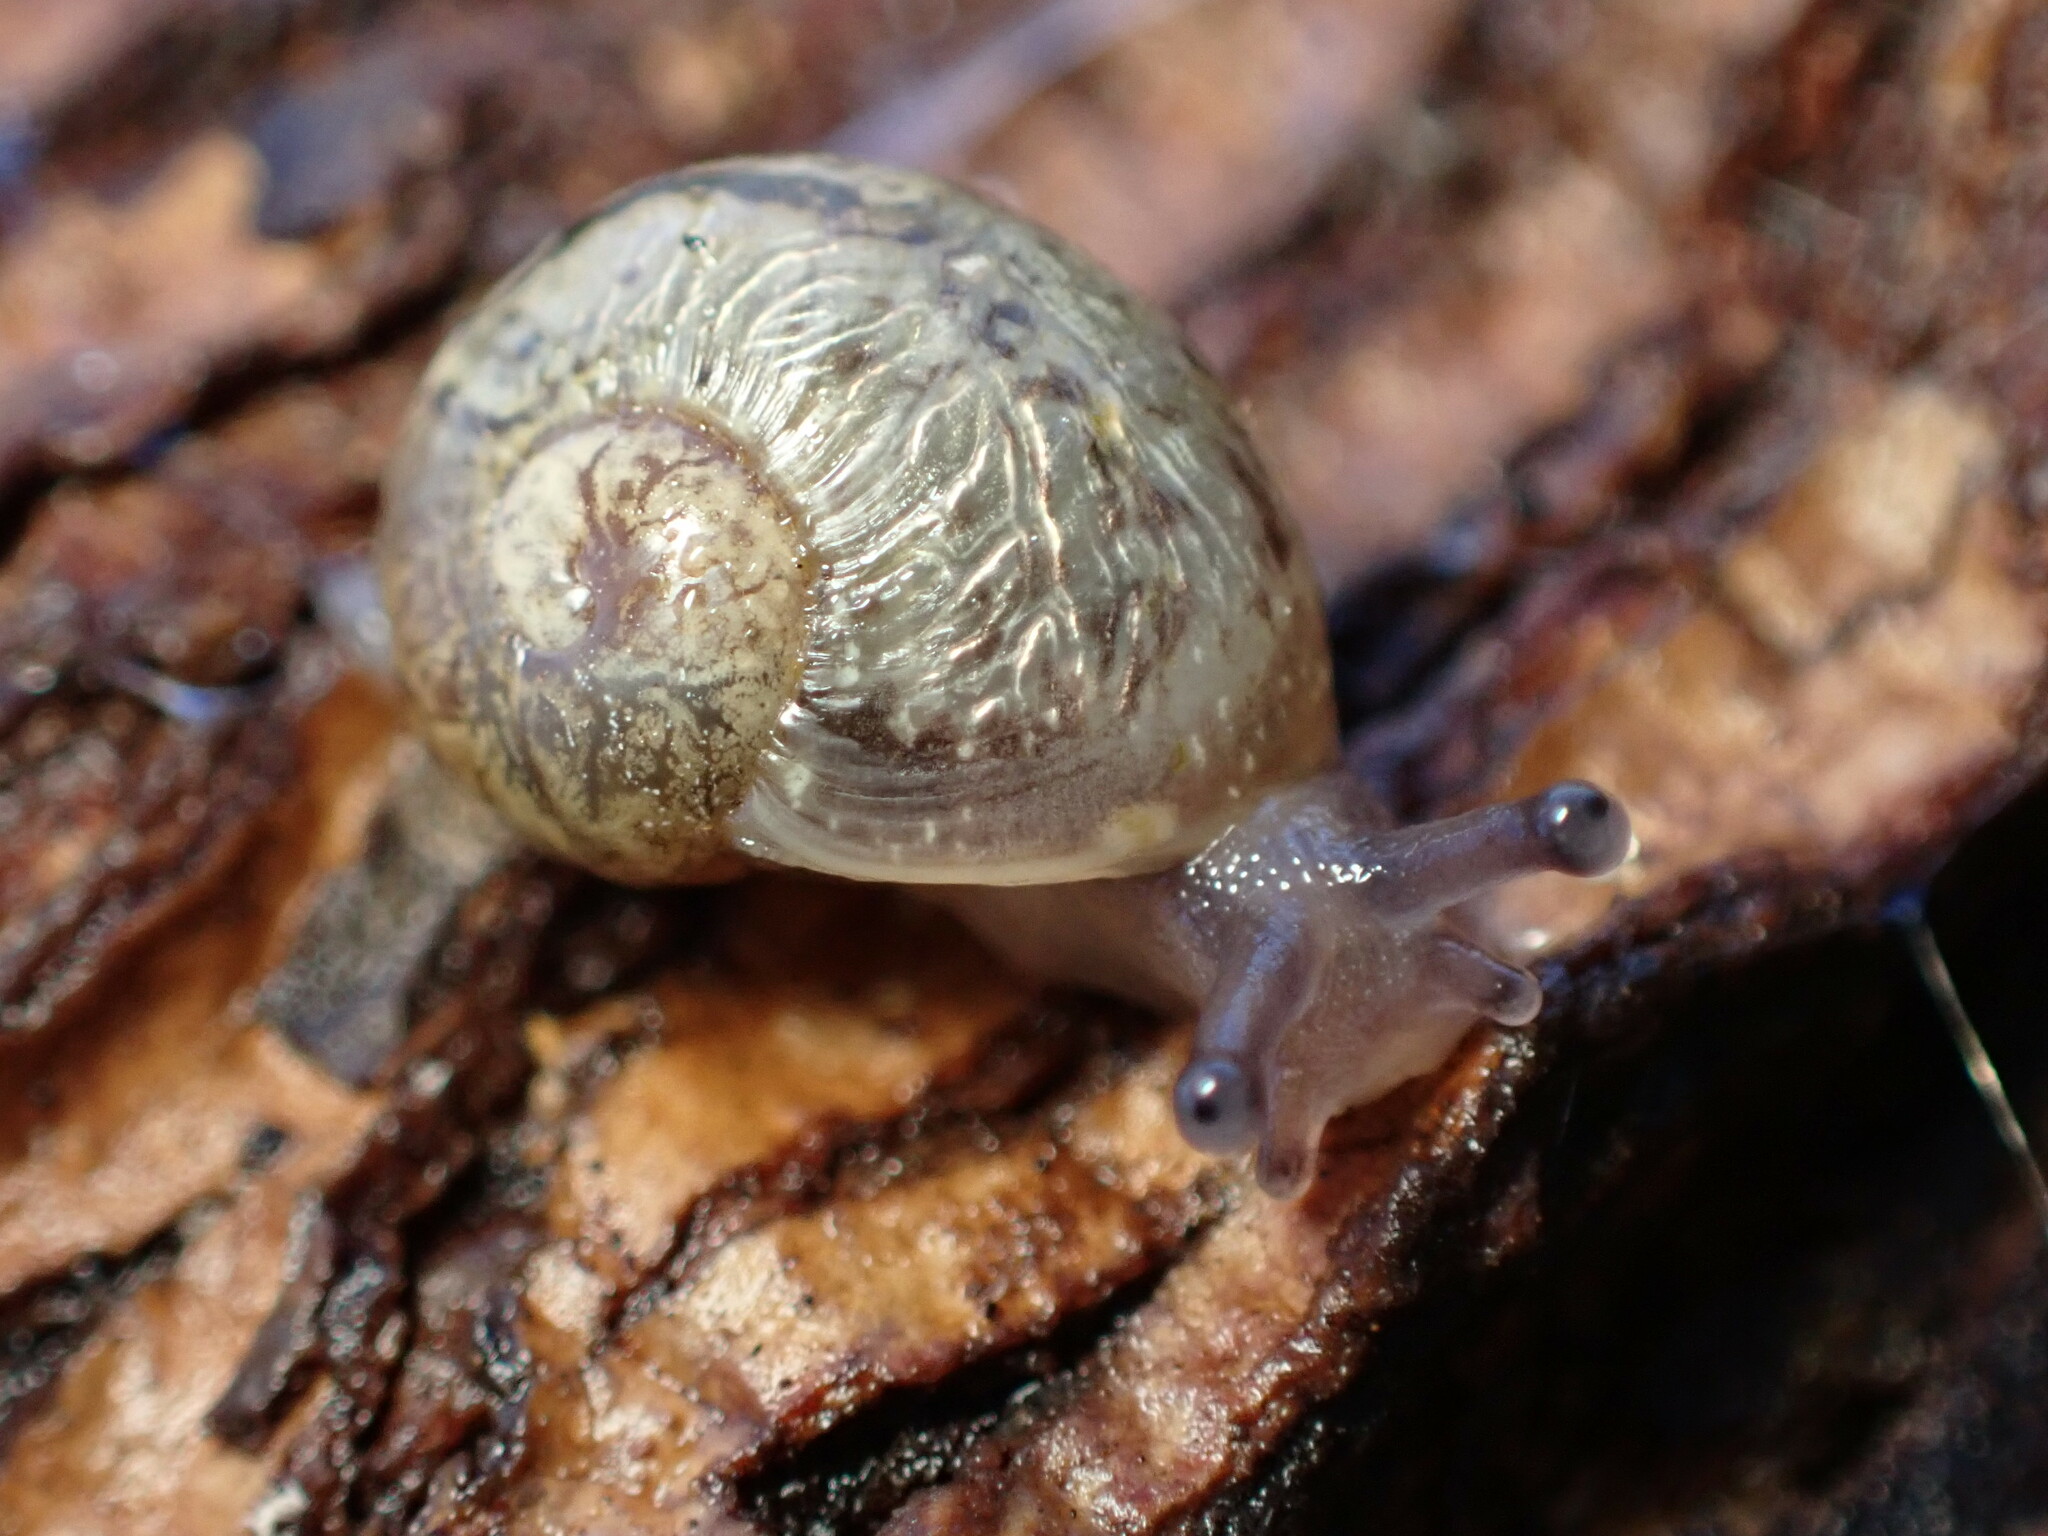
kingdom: Animalia
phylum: Mollusca
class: Gastropoda
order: Stylommatophora
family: Helicidae
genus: Cornu
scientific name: Cornu aspersum
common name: Brown garden snail
